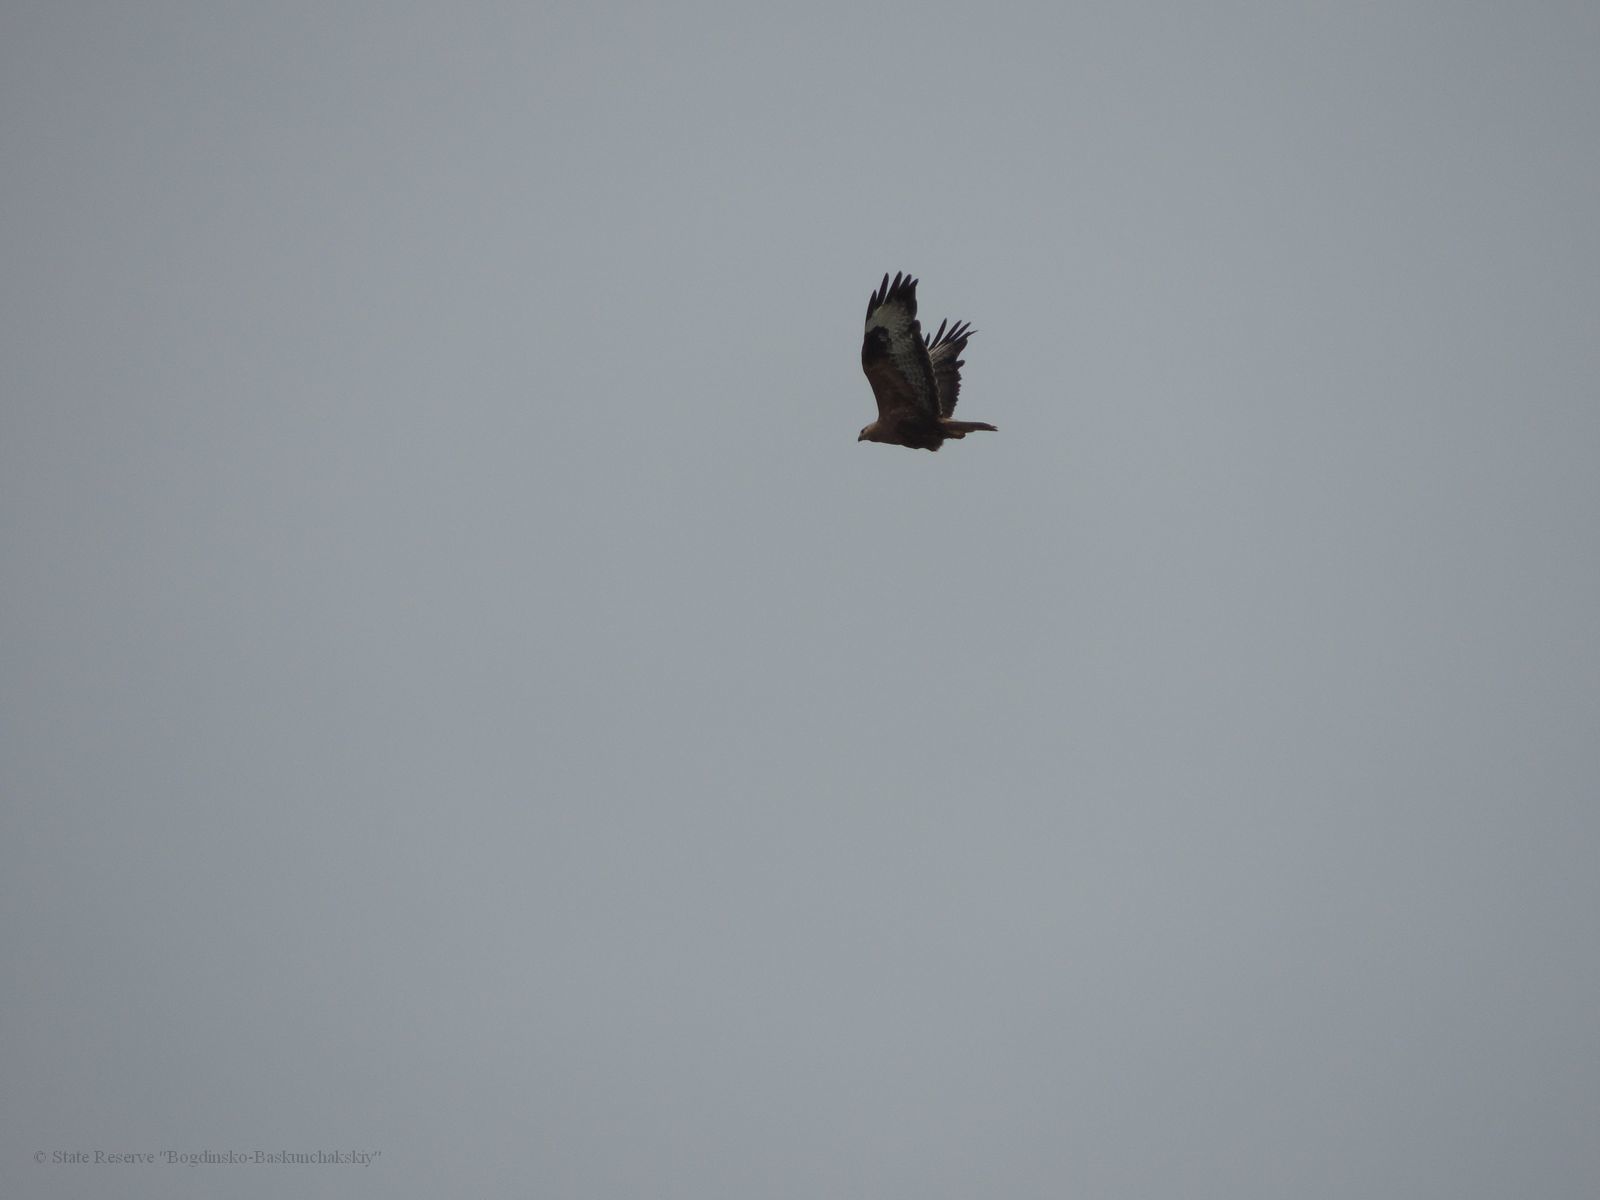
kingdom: Animalia
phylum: Chordata
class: Aves
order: Accipitriformes
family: Accipitridae
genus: Buteo
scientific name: Buteo rufinus
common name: Long-legged buzzard
